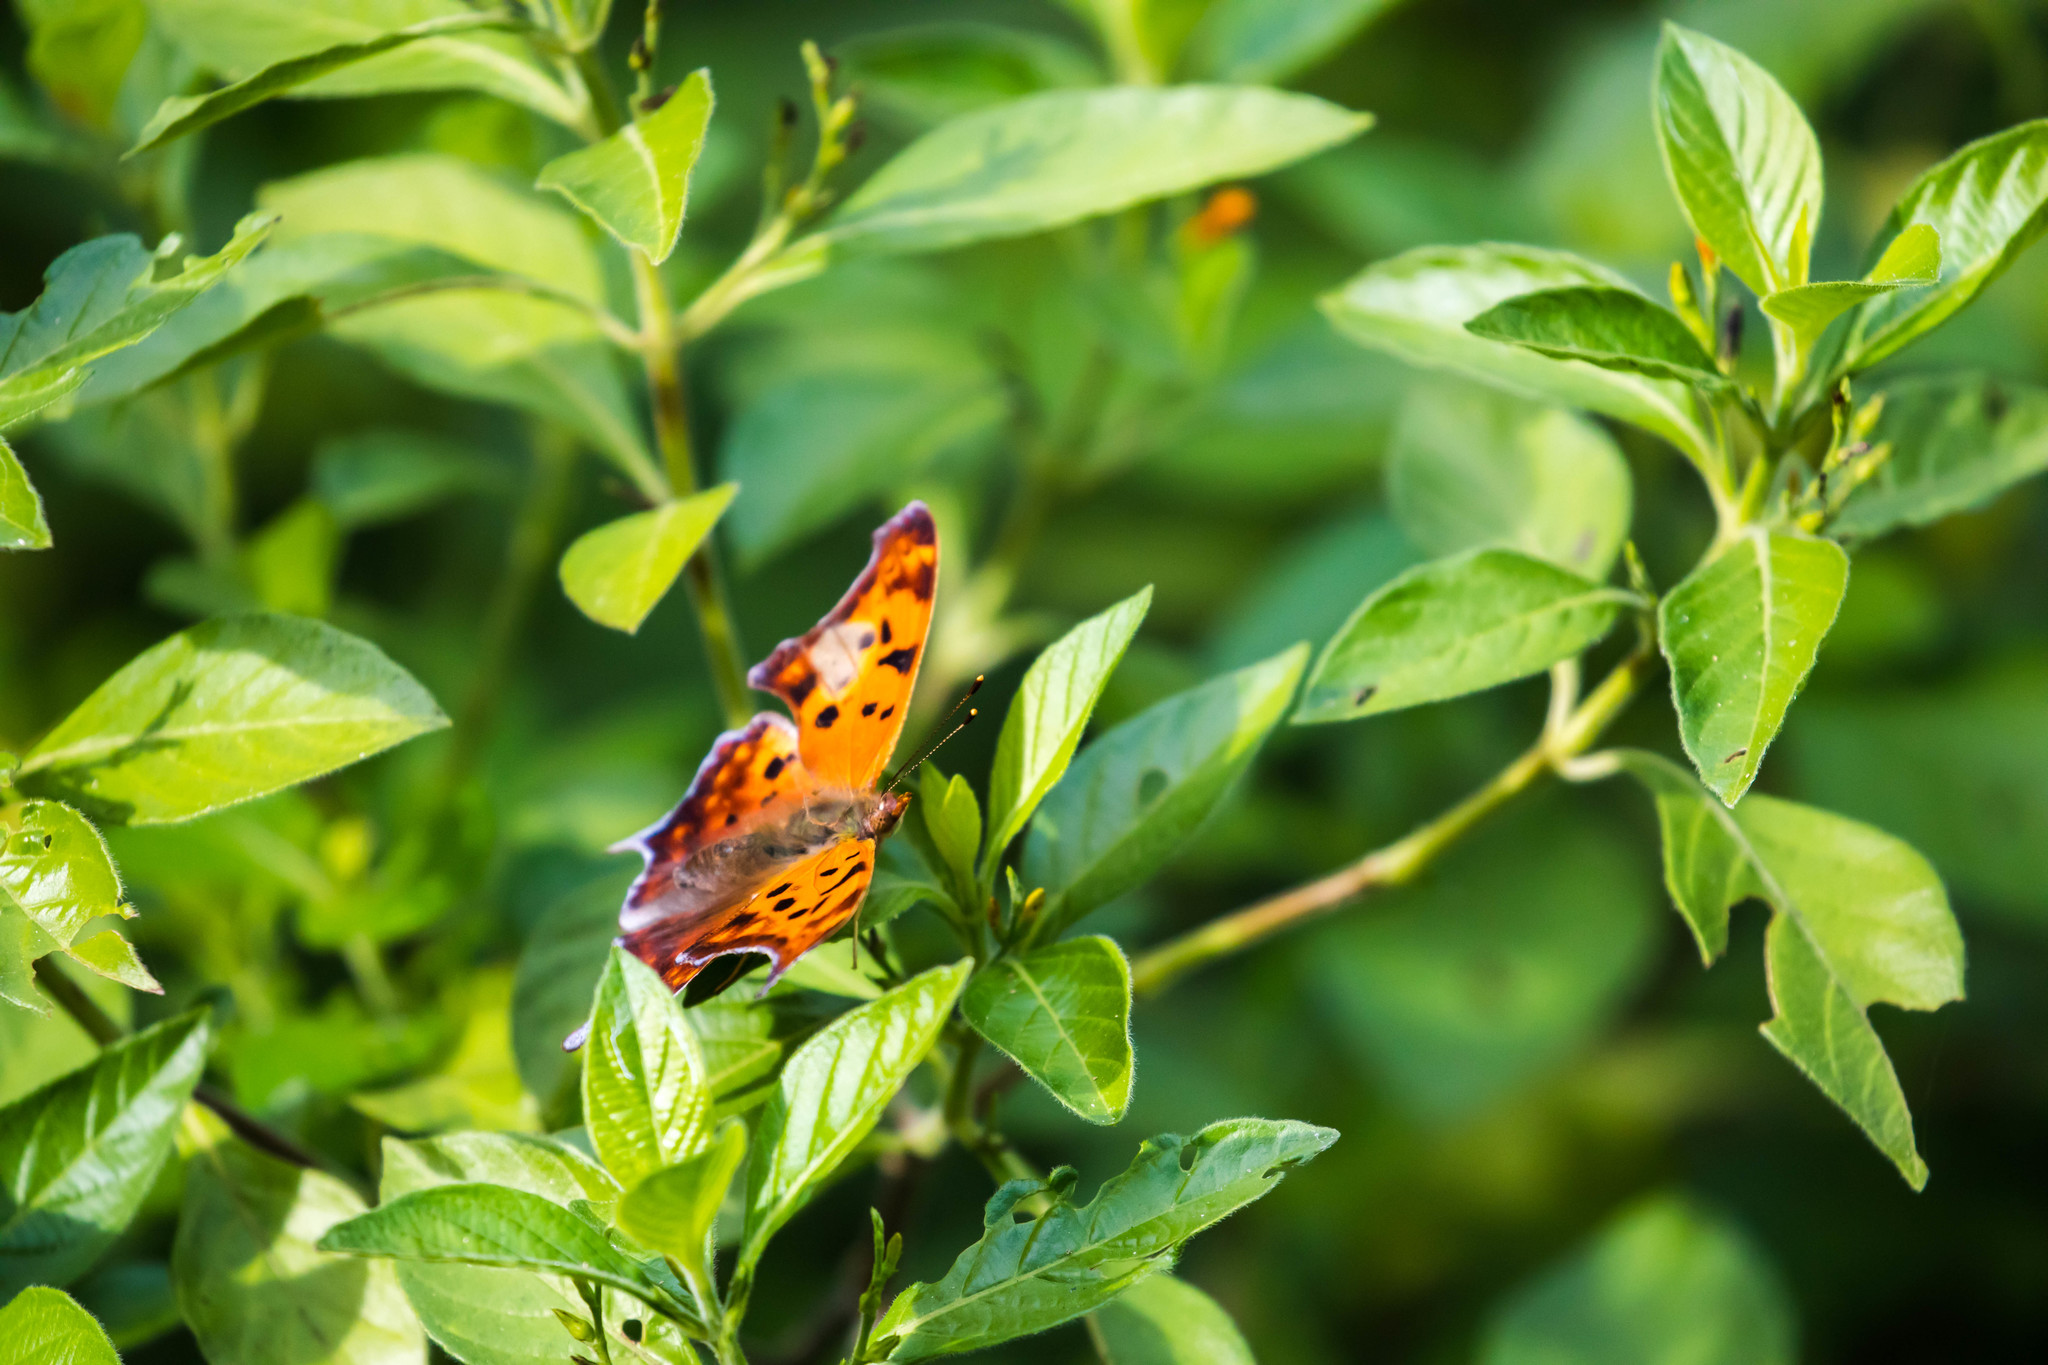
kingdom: Animalia
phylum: Arthropoda
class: Insecta
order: Lepidoptera
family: Nymphalidae
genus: Polygonia
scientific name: Polygonia interrogationis
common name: Question mark
